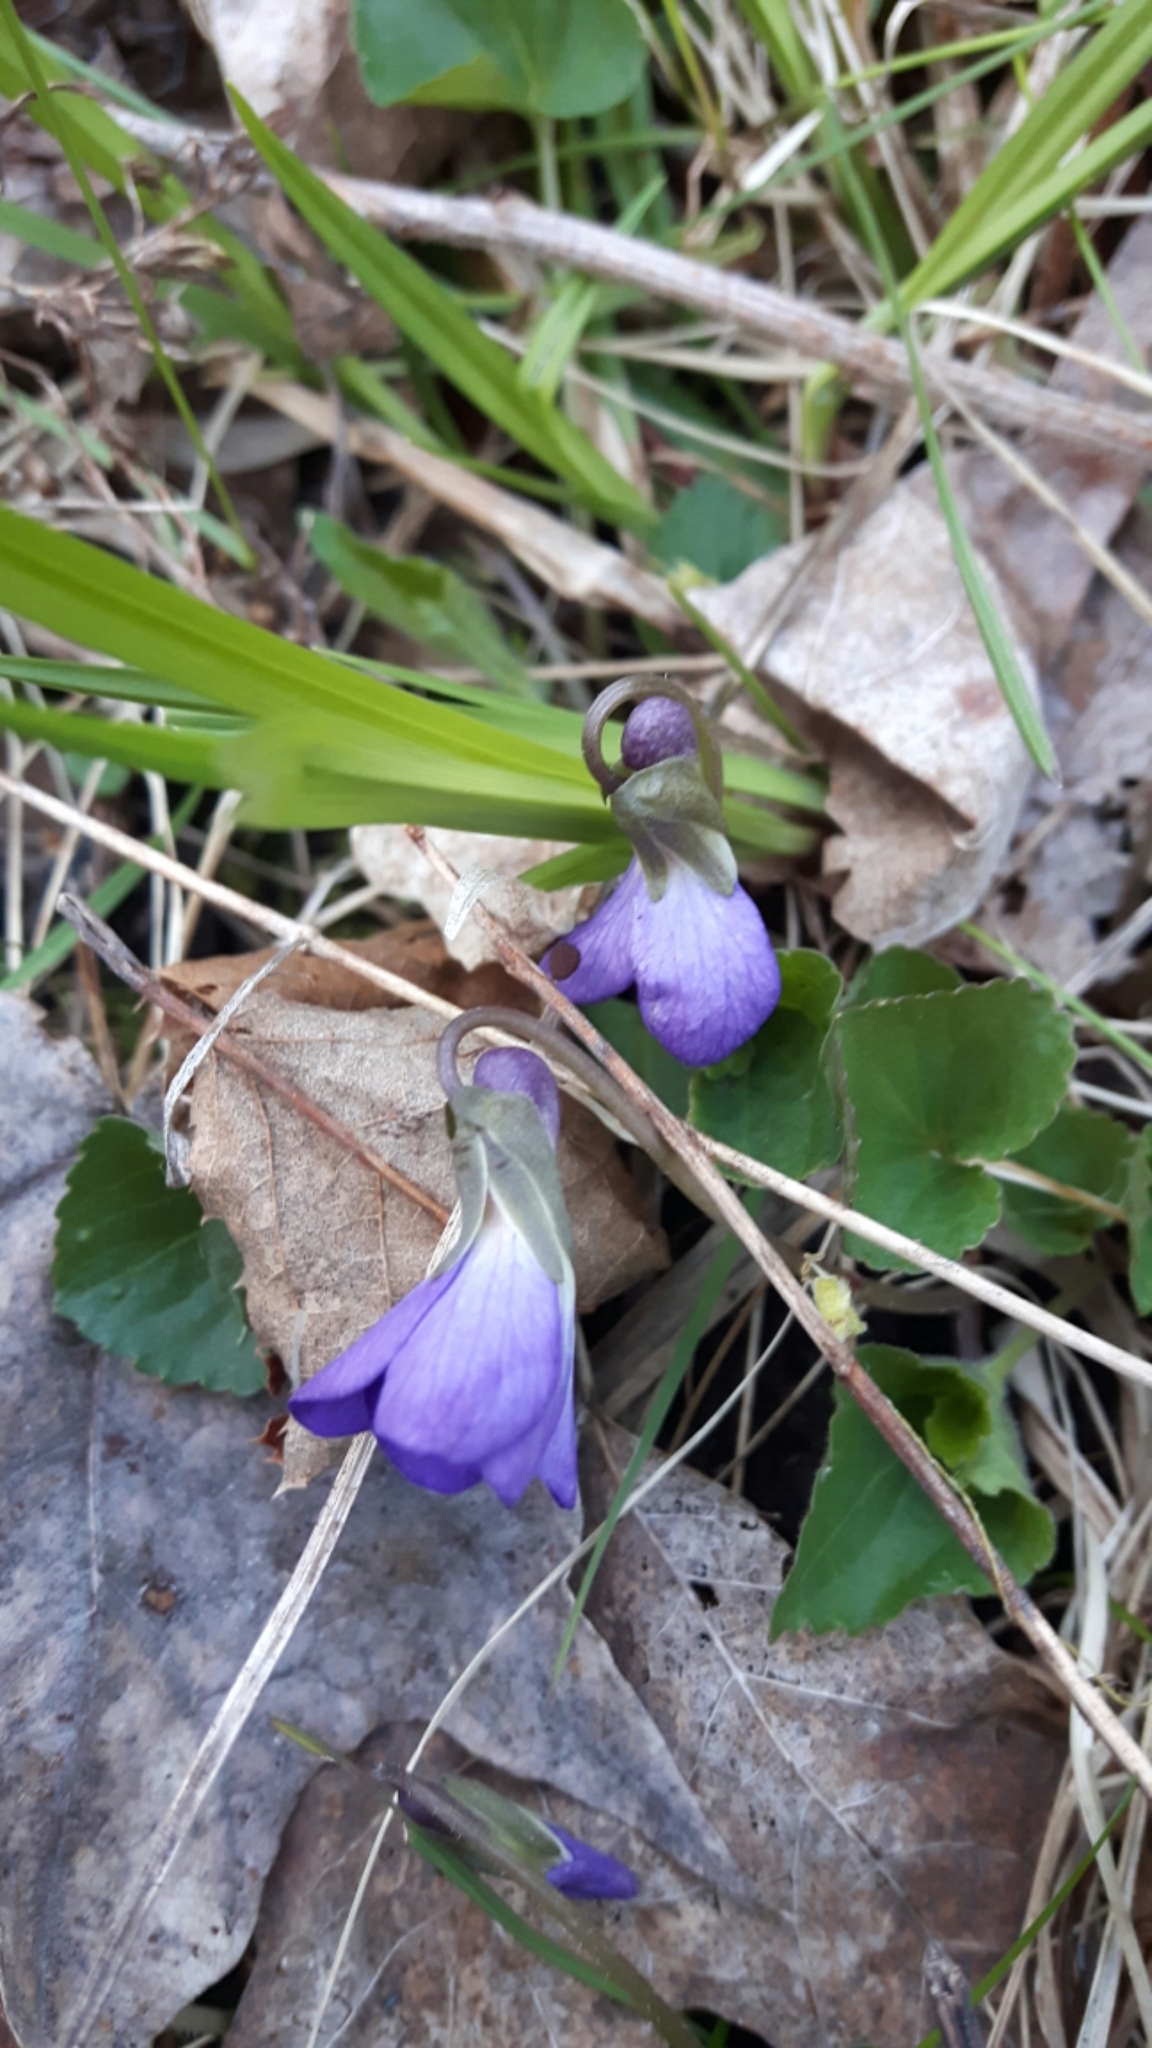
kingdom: Plantae
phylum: Tracheophyta
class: Magnoliopsida
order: Malpighiales
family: Violaceae
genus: Viola
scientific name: Viola sororia
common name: Dooryard violet
